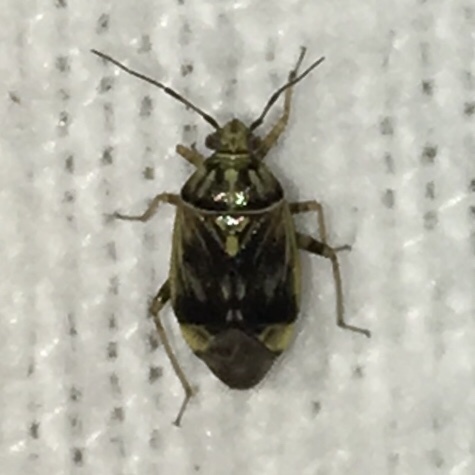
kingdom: Animalia
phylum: Arthropoda
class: Insecta
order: Hemiptera
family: Miridae
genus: Lygus
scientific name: Lygus lineolaris
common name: North american tarnished plant bug
